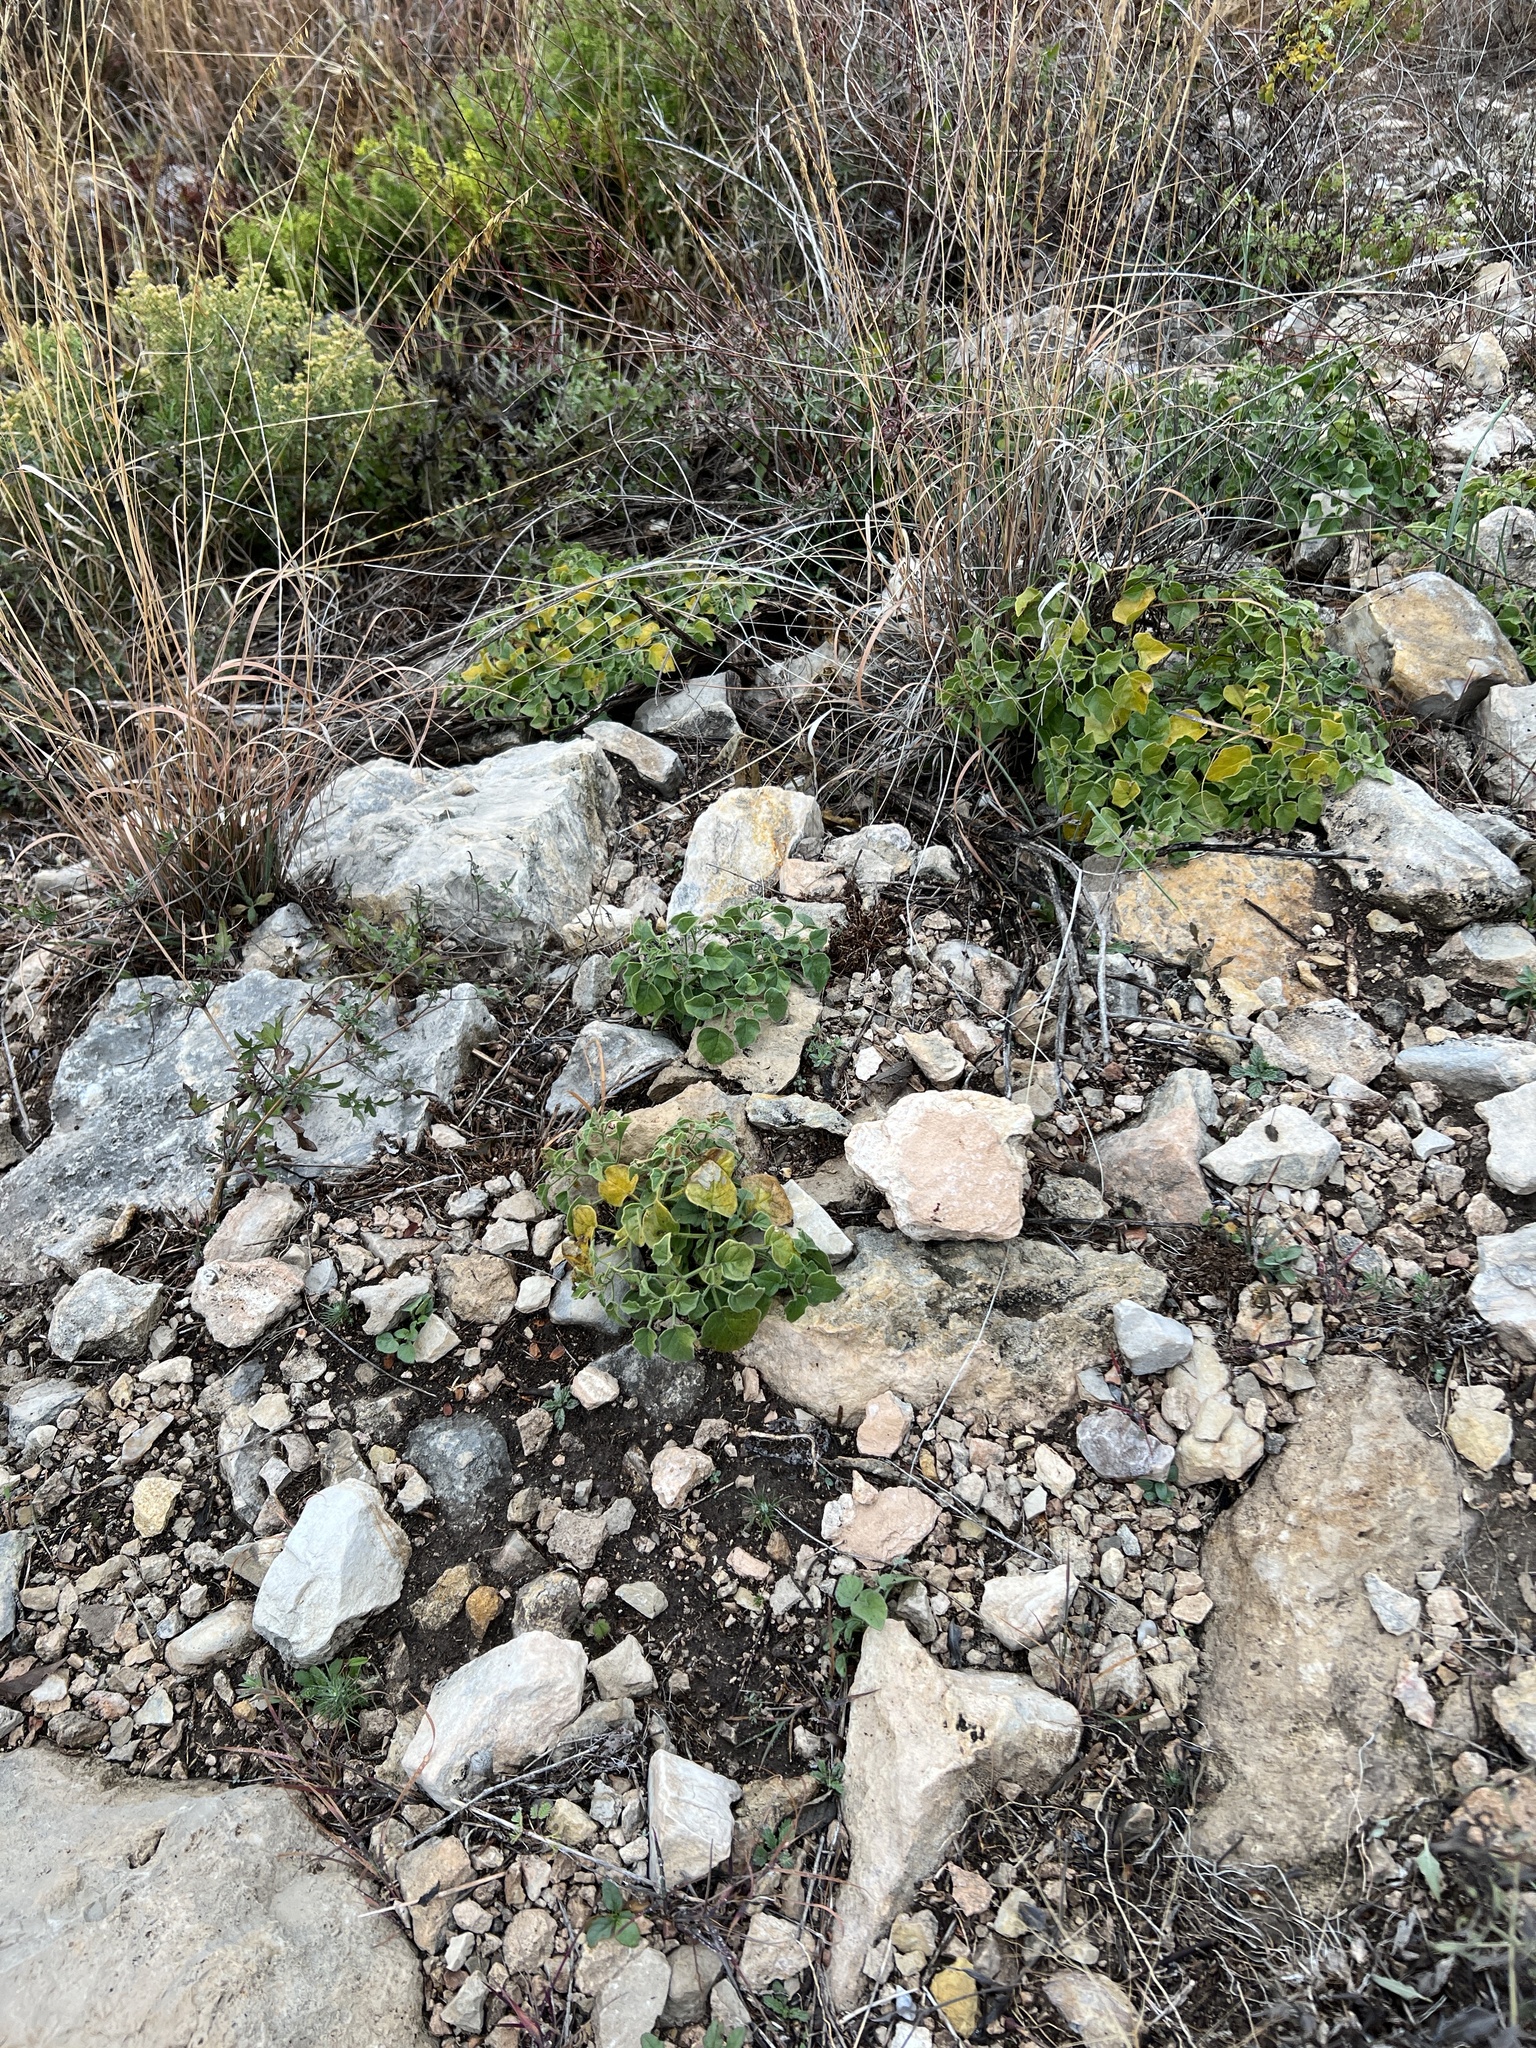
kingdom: Plantae
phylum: Tracheophyta
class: Magnoliopsida
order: Solanales
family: Solanaceae
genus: Physalis
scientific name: Physalis hederifolia
